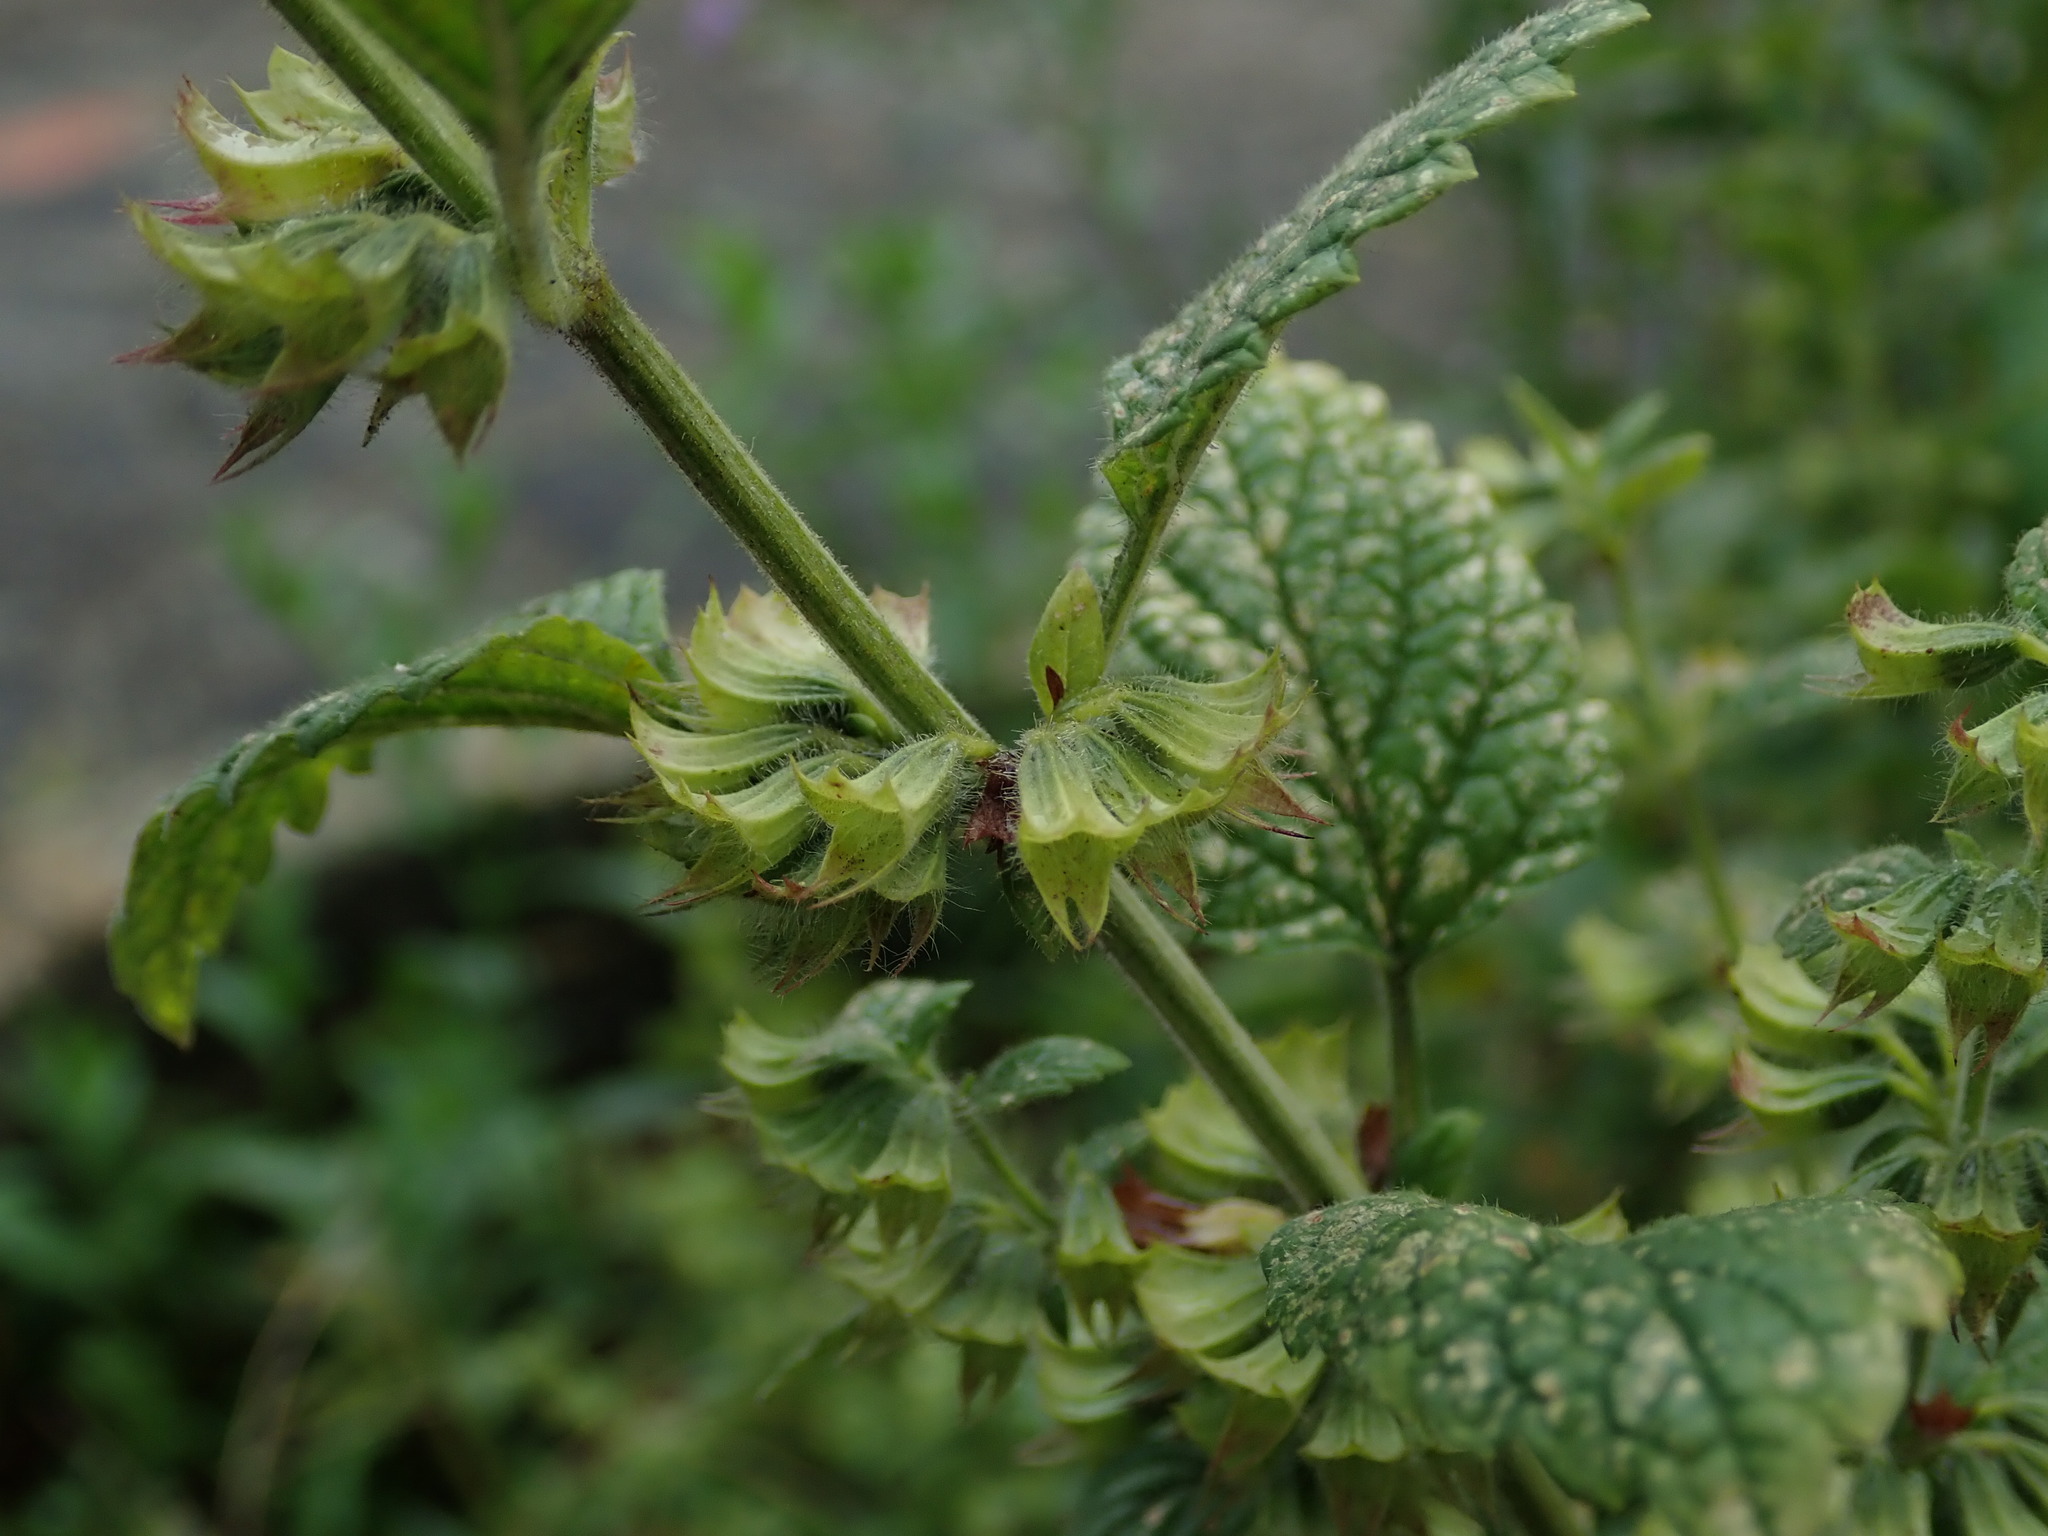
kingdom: Plantae
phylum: Tracheophyta
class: Magnoliopsida
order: Lamiales
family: Lamiaceae
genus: Melissa
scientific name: Melissa officinalis
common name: Balm
